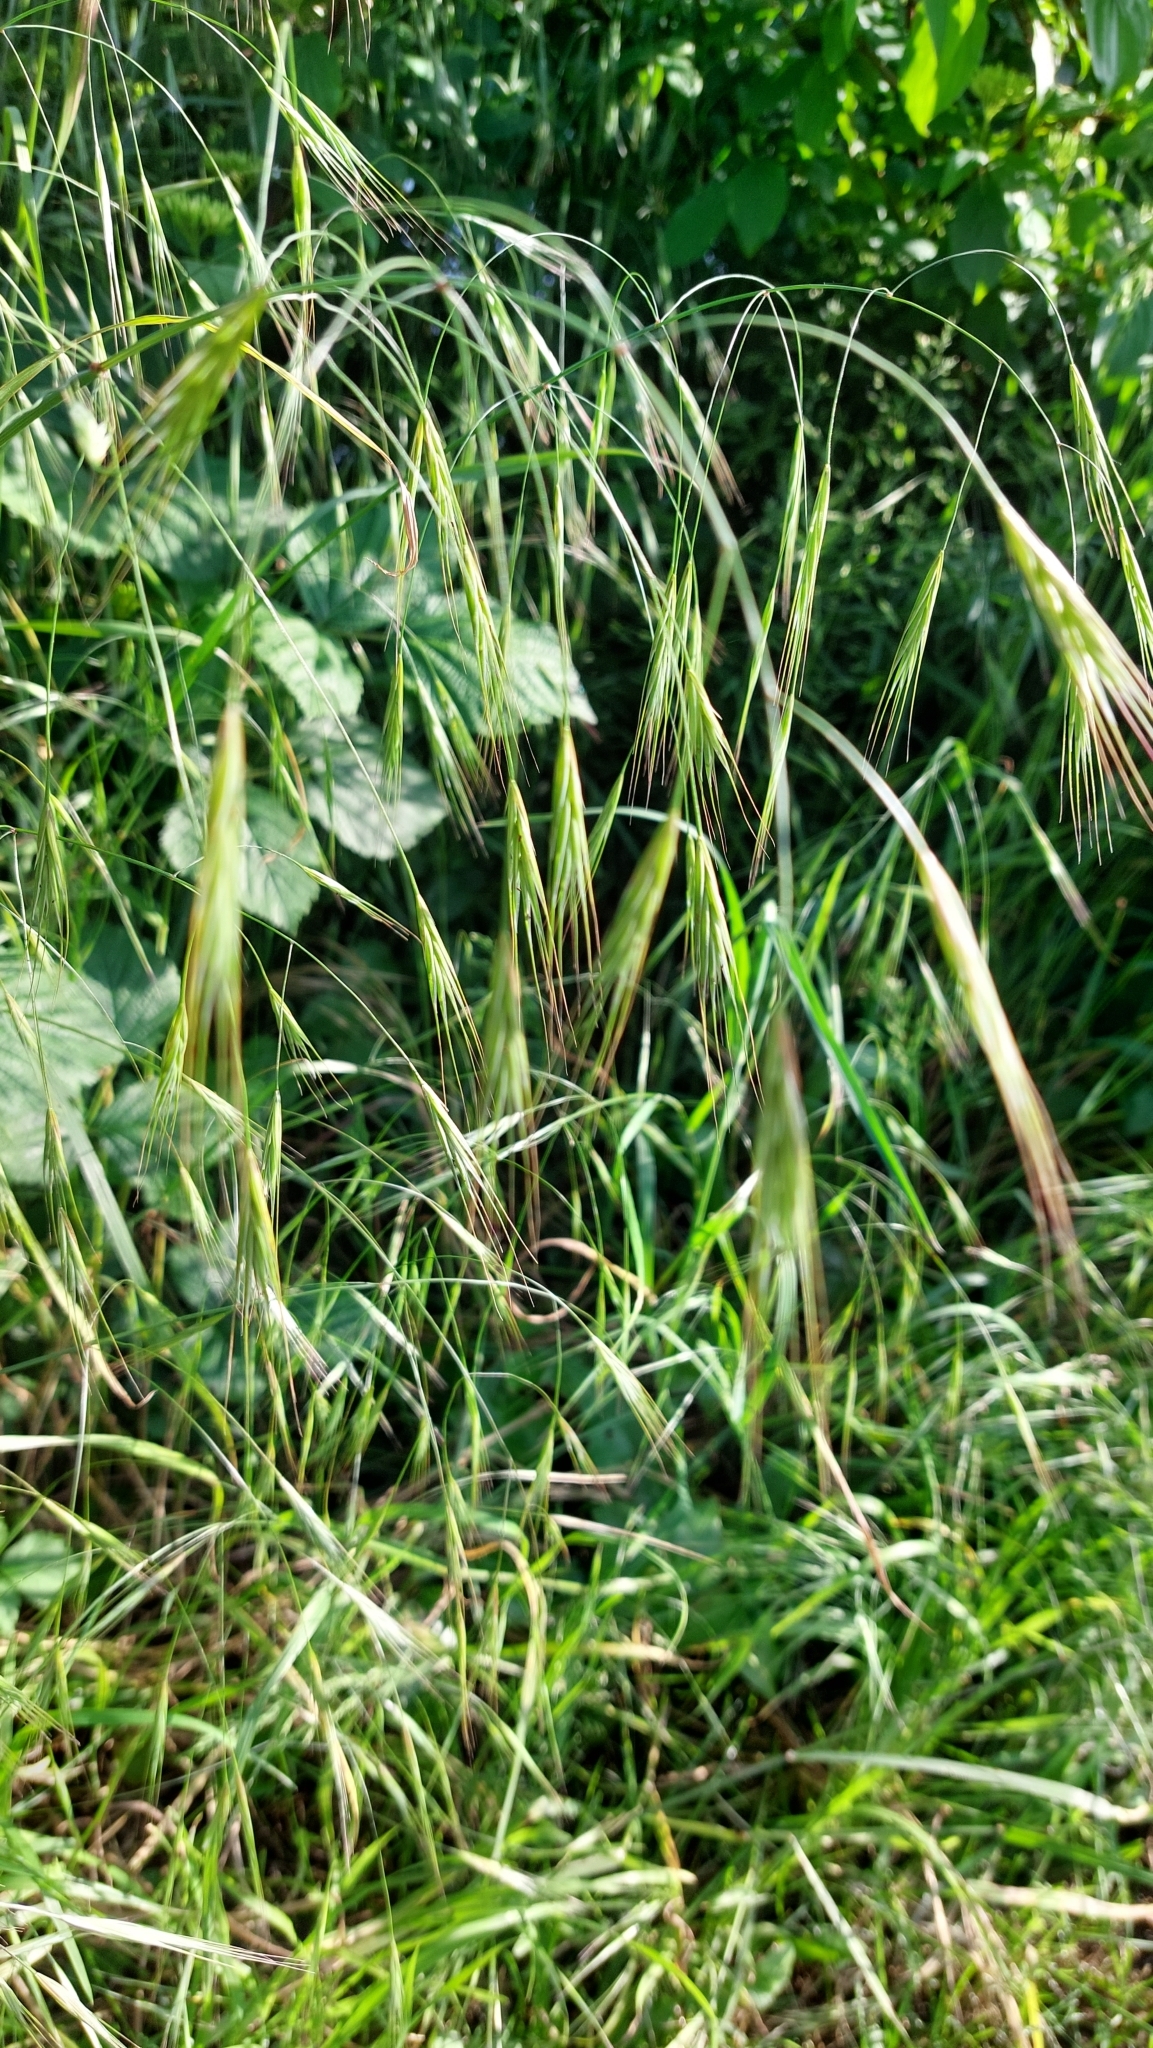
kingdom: Plantae
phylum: Tracheophyta
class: Liliopsida
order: Poales
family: Poaceae
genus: Bromus
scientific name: Bromus sterilis
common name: Poverty brome
